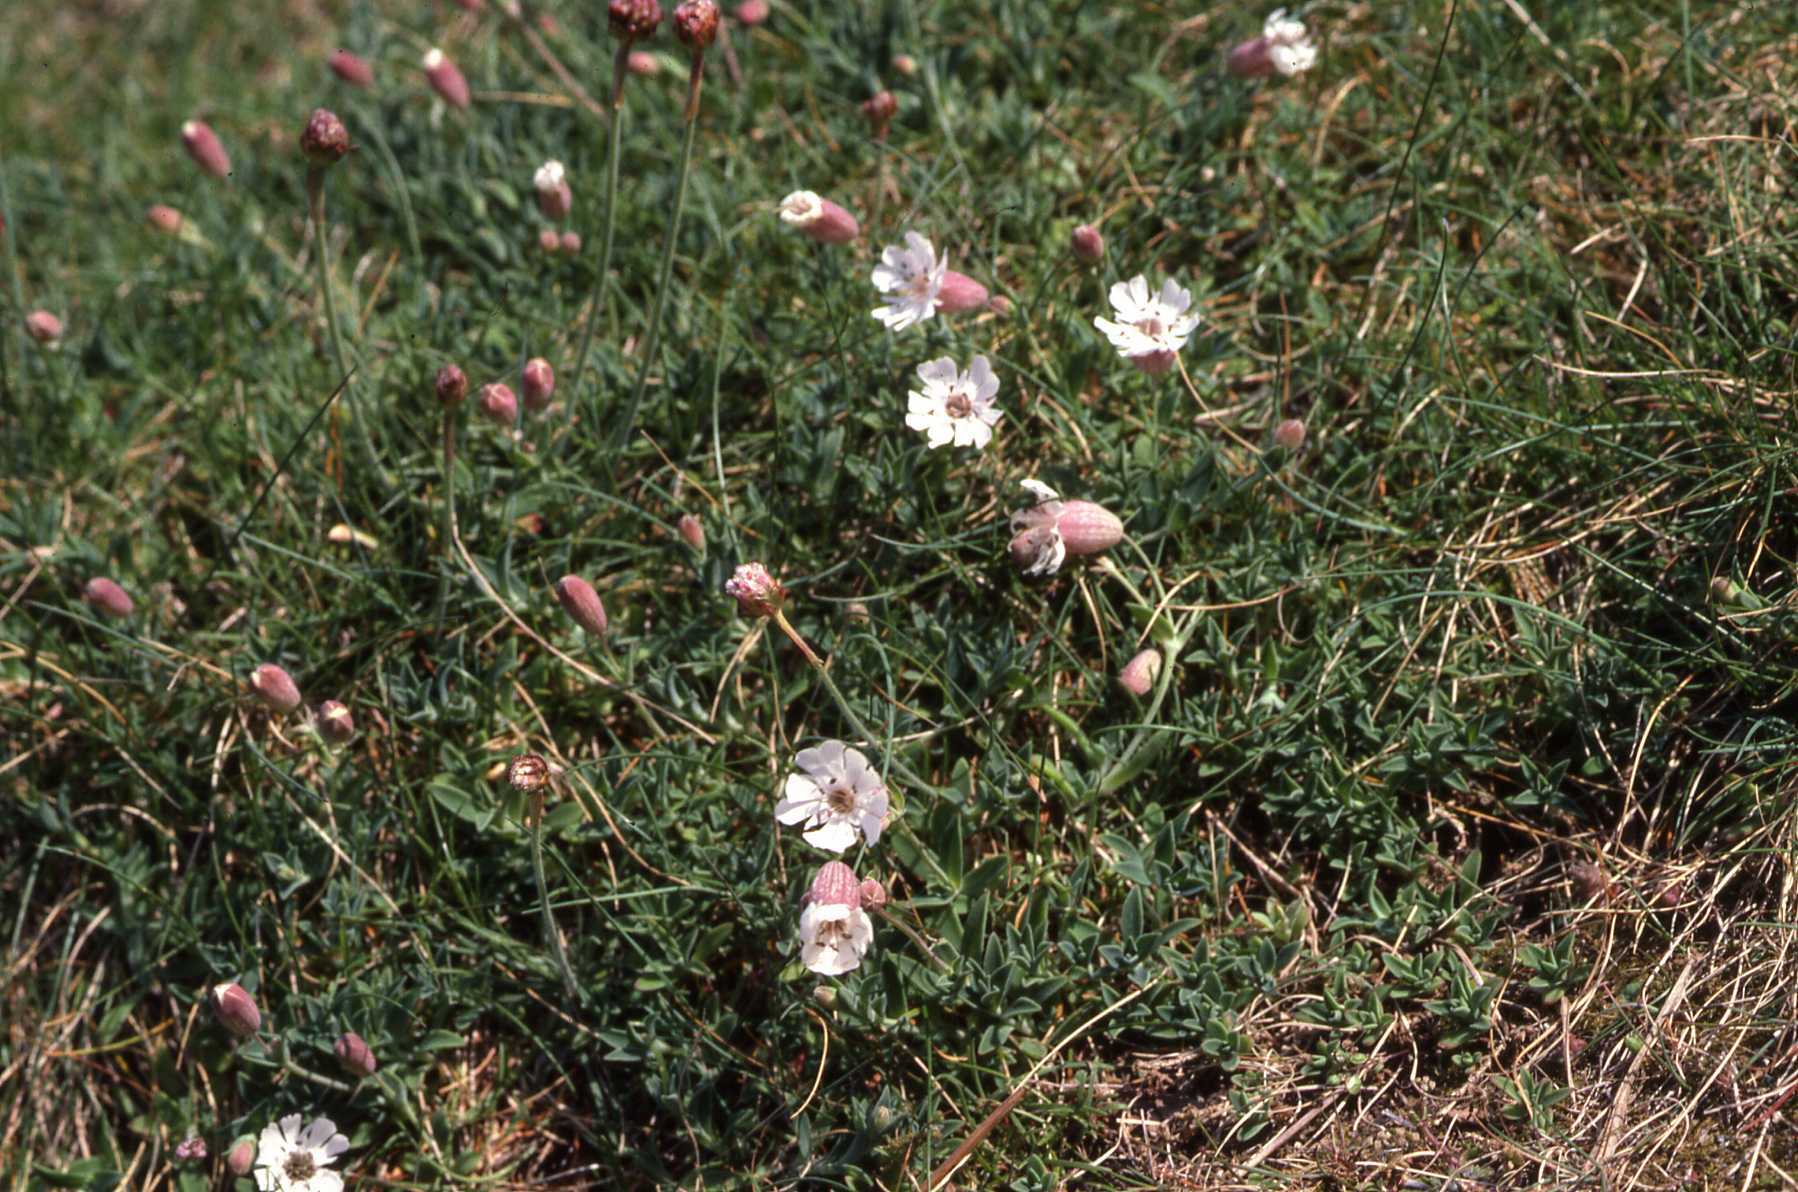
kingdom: Plantae
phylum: Tracheophyta
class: Magnoliopsida
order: Caryophyllales
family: Caryophyllaceae
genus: Silene
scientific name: Silene uniflora
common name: Sea campion
